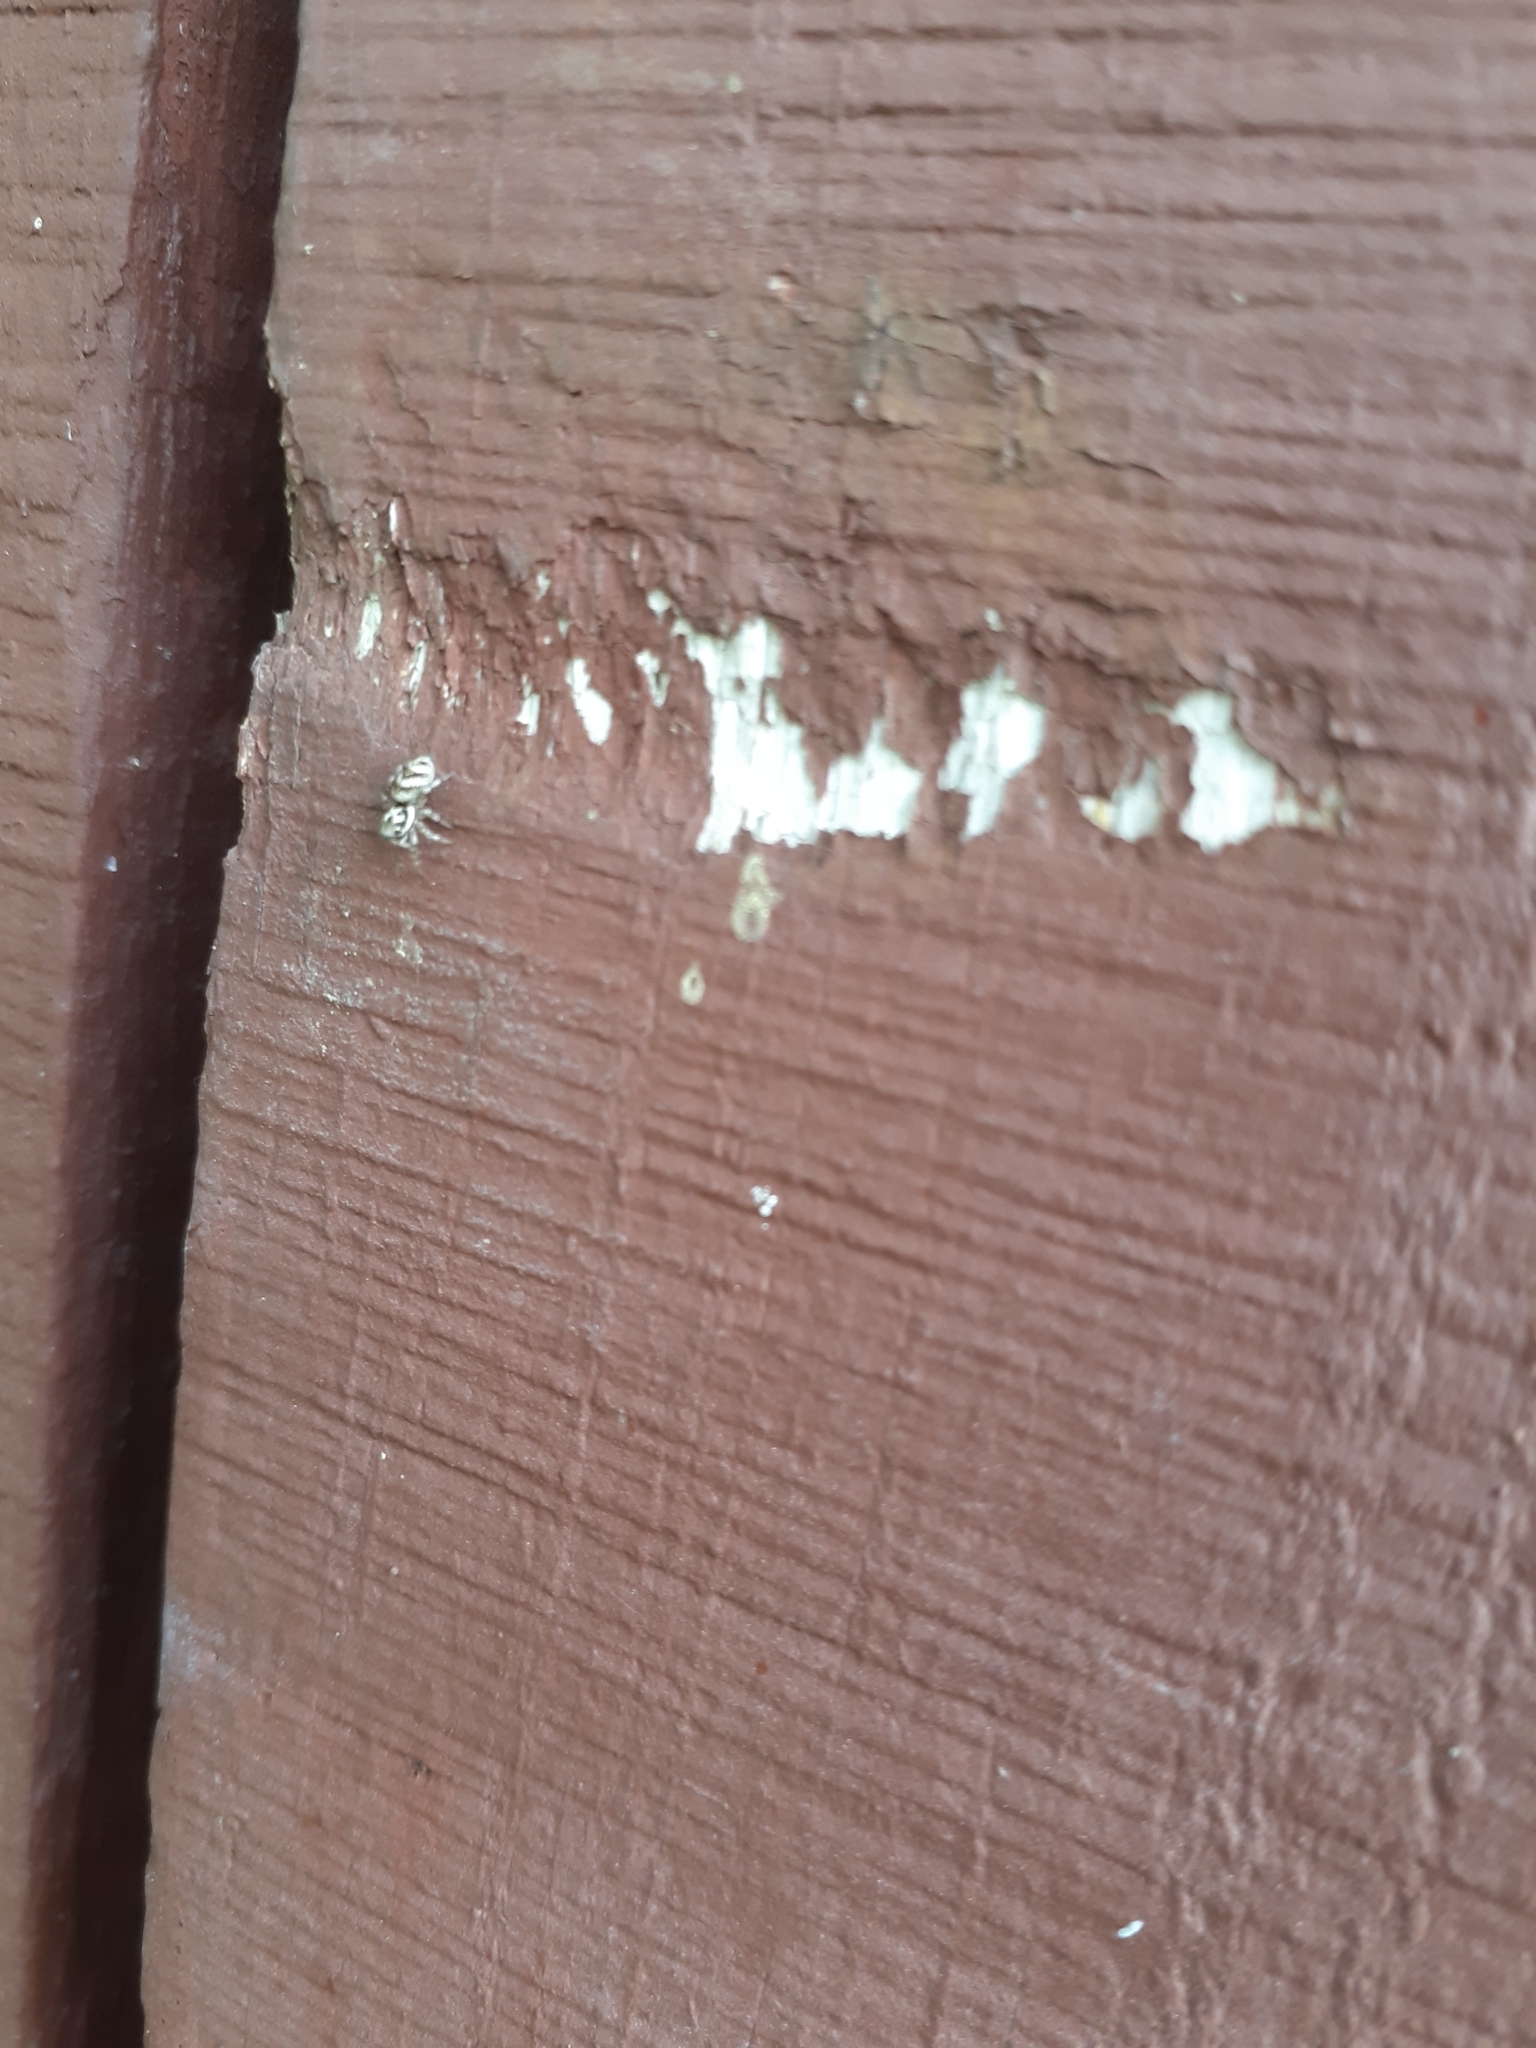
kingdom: Animalia
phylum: Arthropoda
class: Arachnida
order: Araneae
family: Salticidae
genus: Salticus
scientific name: Salticus scenicus
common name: Zebra jumper
